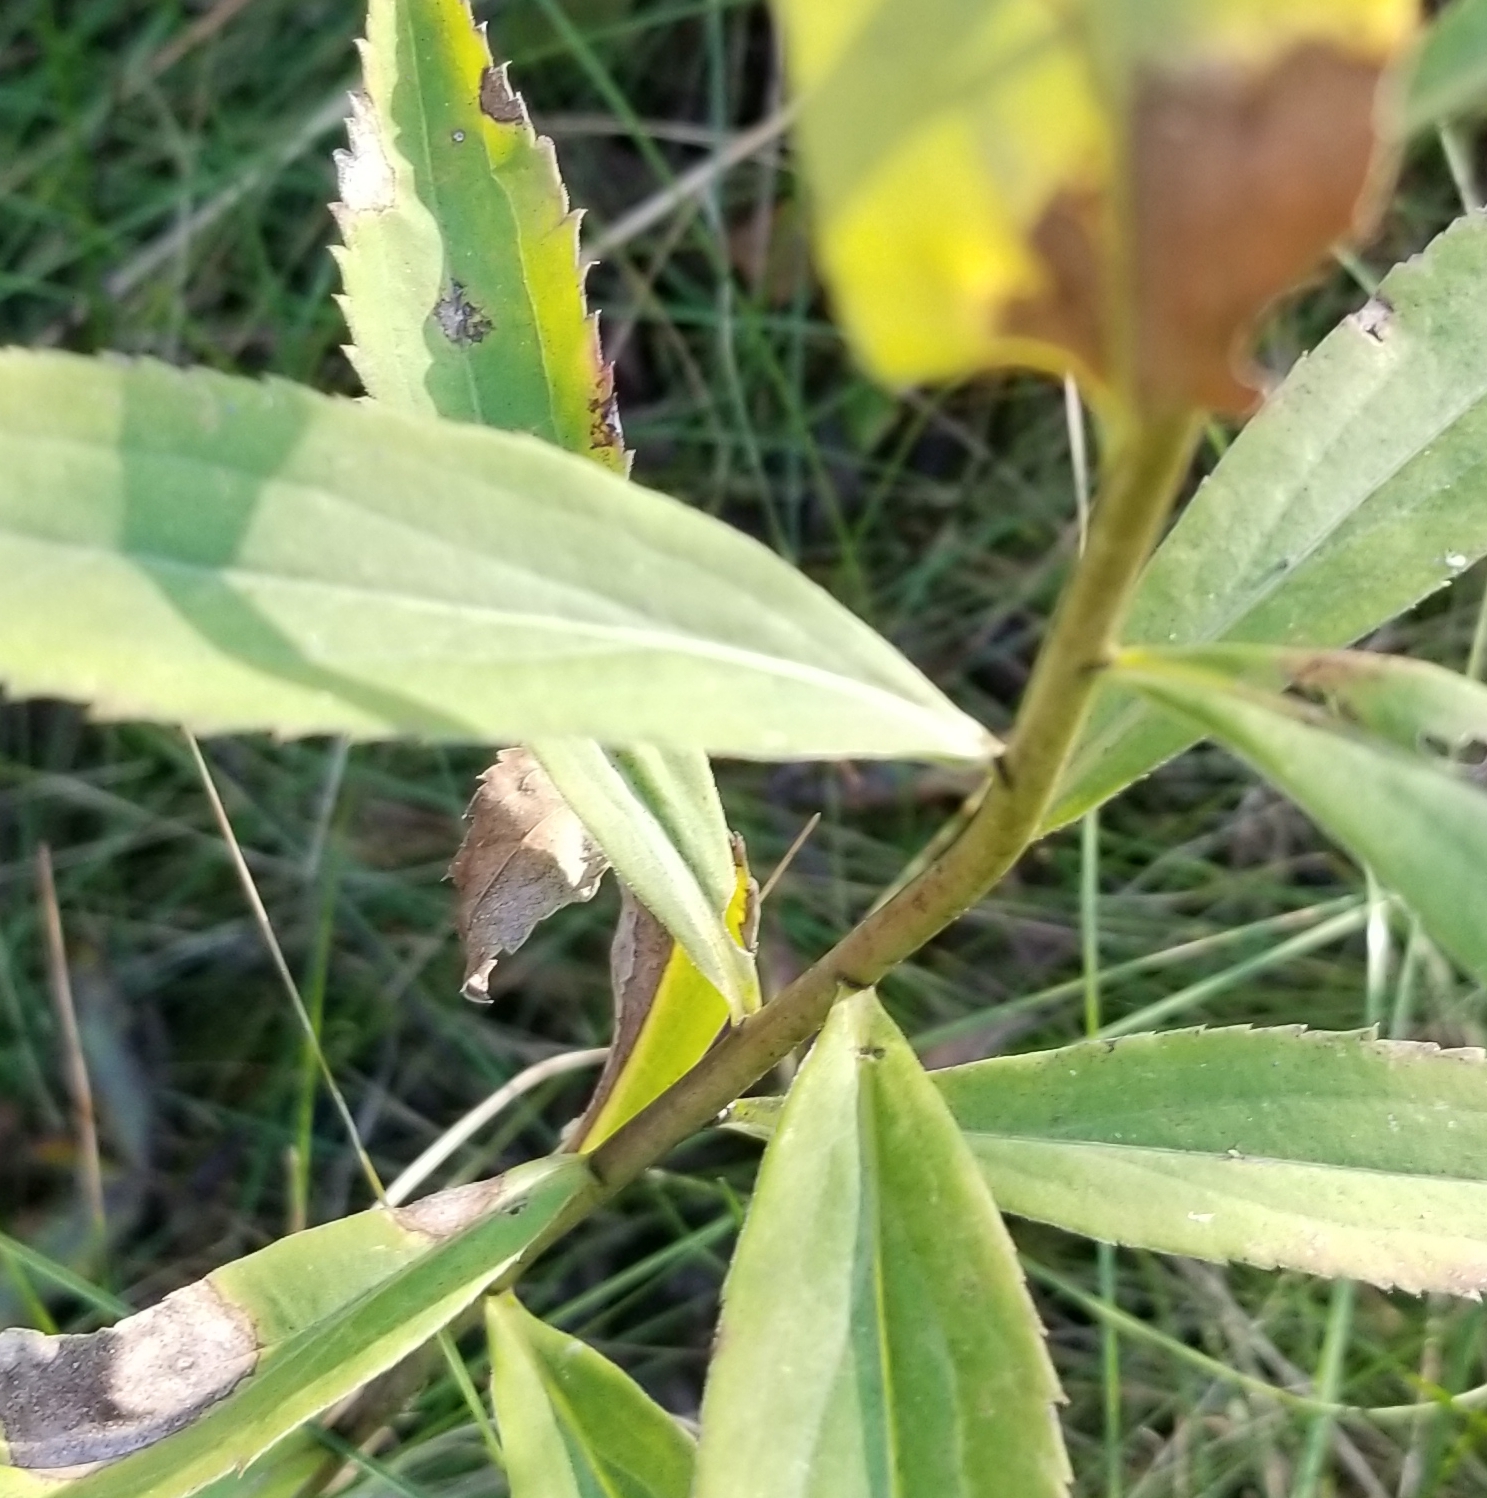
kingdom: Animalia
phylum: Arthropoda
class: Insecta
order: Diptera
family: Cecidomyiidae
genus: Rhopalomyia
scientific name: Rhopalomyia capitata
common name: Giant goldenrod bunch gall midge
